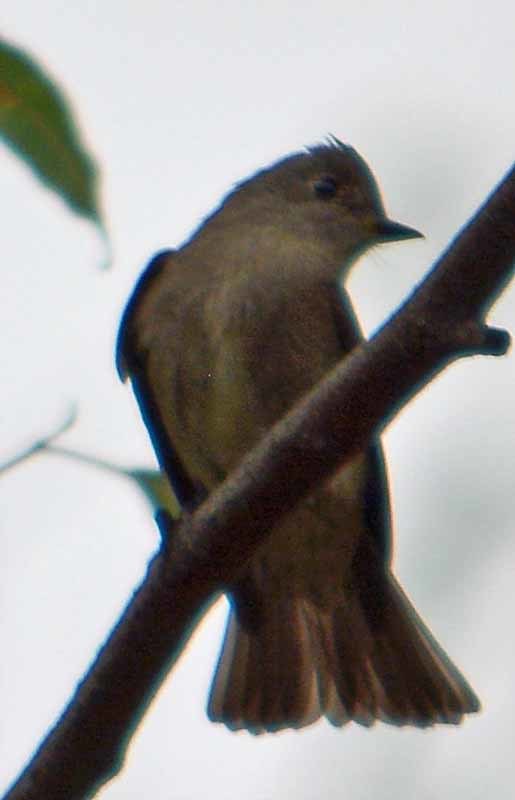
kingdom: Animalia
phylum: Chordata
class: Aves
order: Passeriformes
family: Tyrannidae
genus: Contopus
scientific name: Contopus sordidulus
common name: Western wood-pewee
